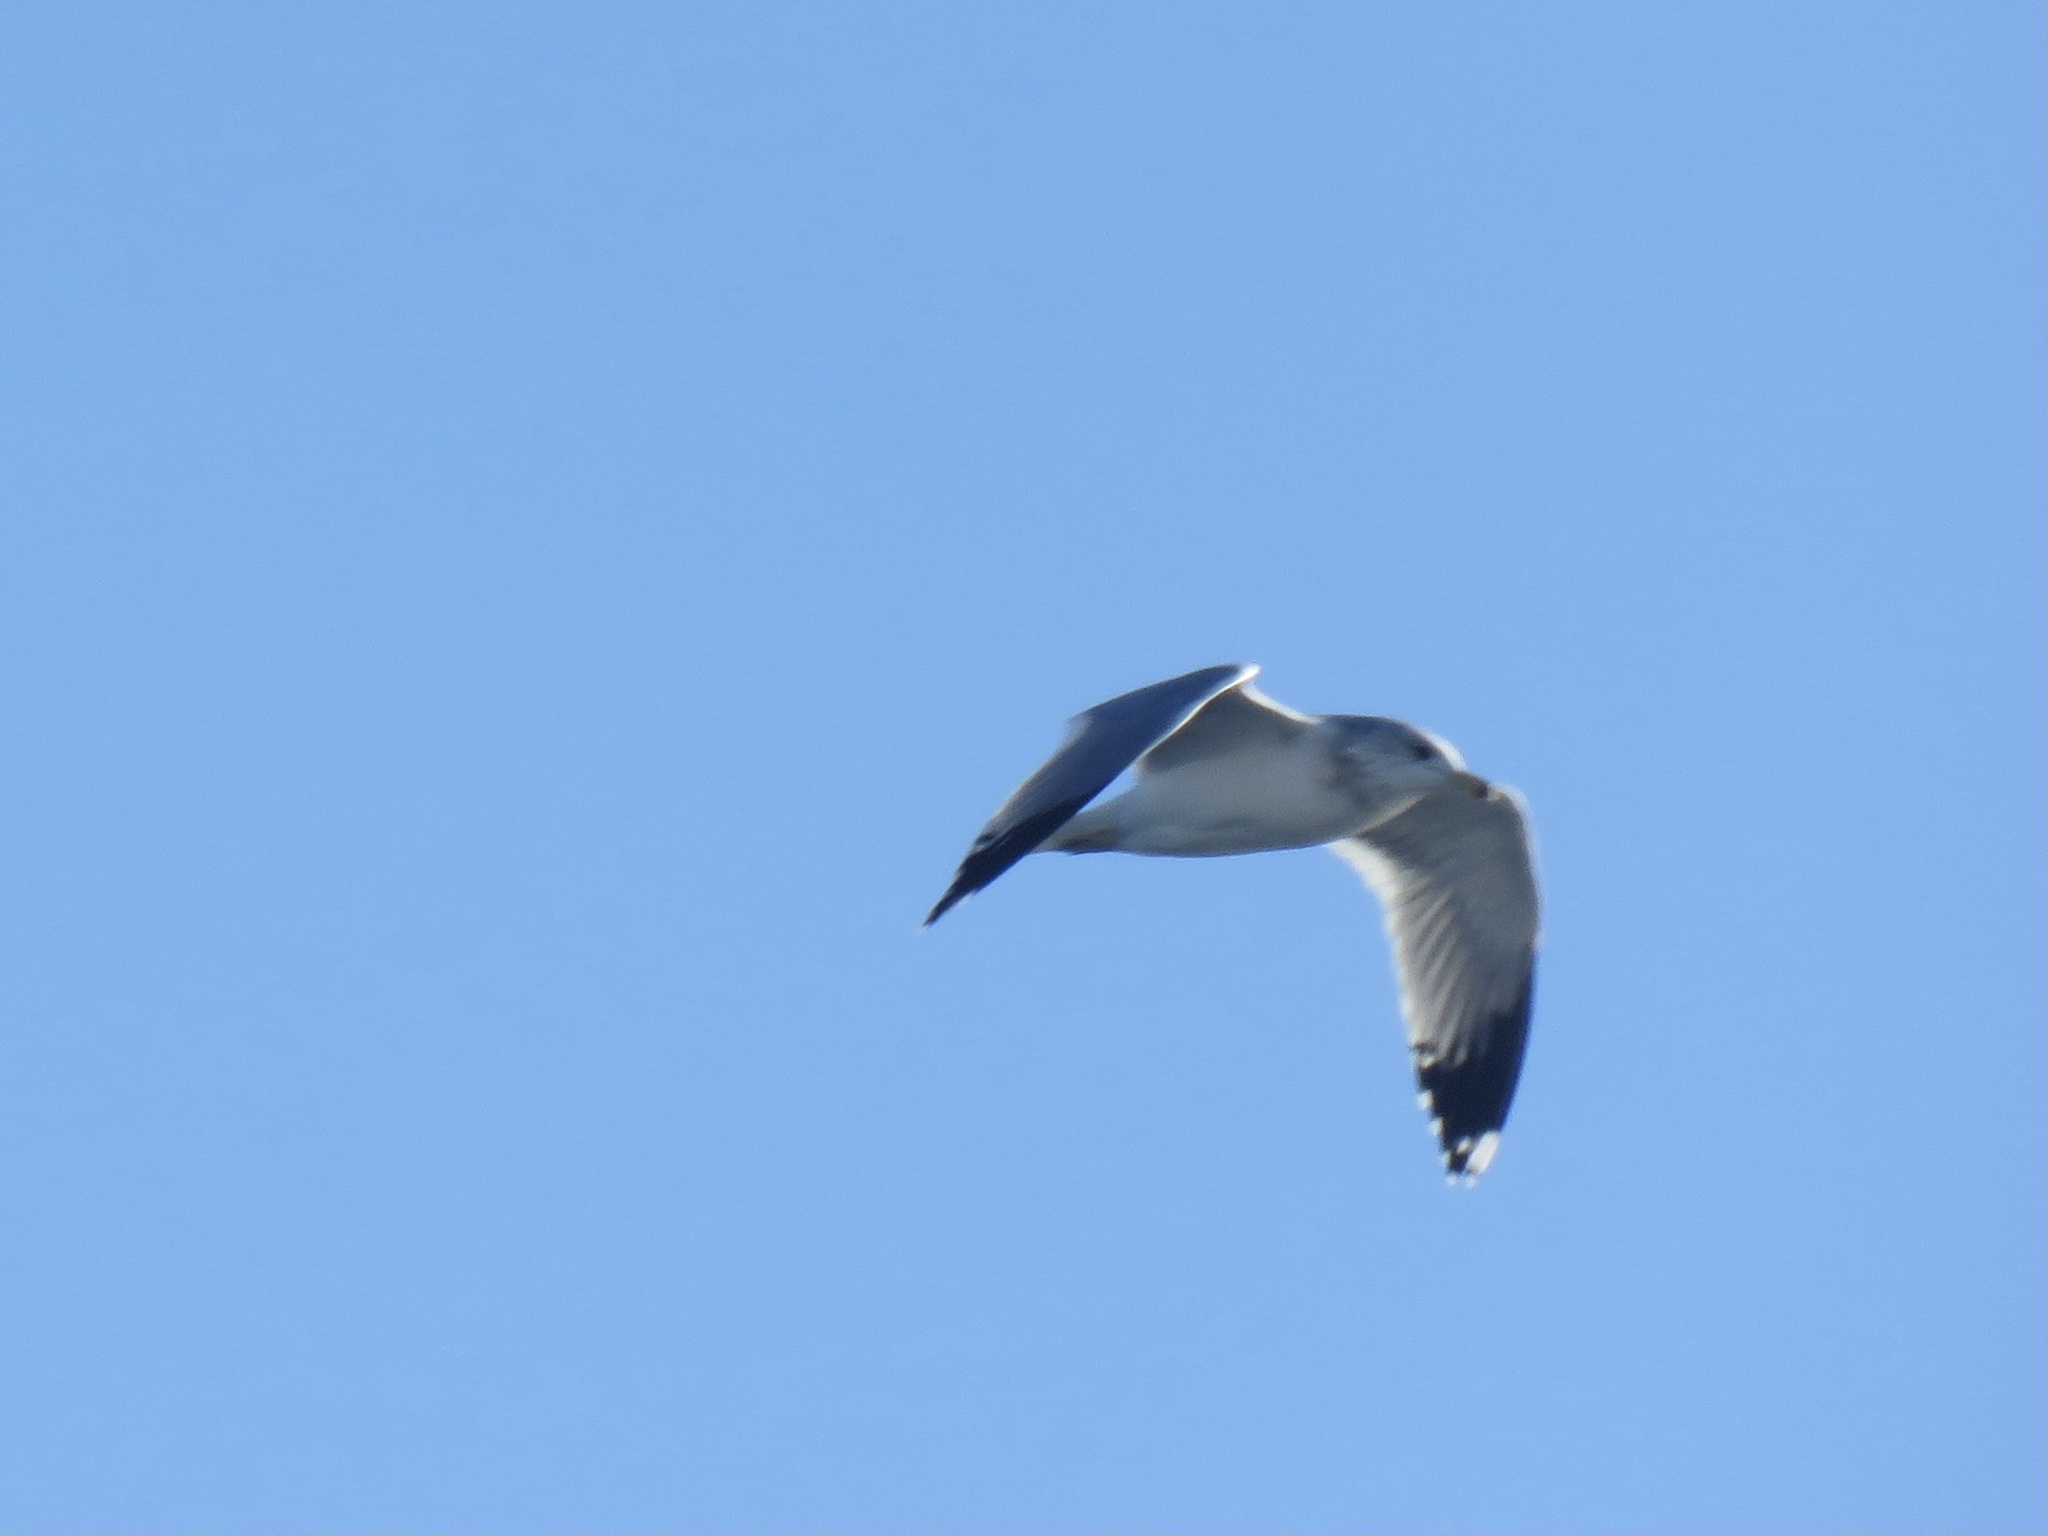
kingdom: Animalia
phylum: Chordata
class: Aves
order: Charadriiformes
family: Laridae
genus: Larus
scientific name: Larus californicus
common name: California gull
